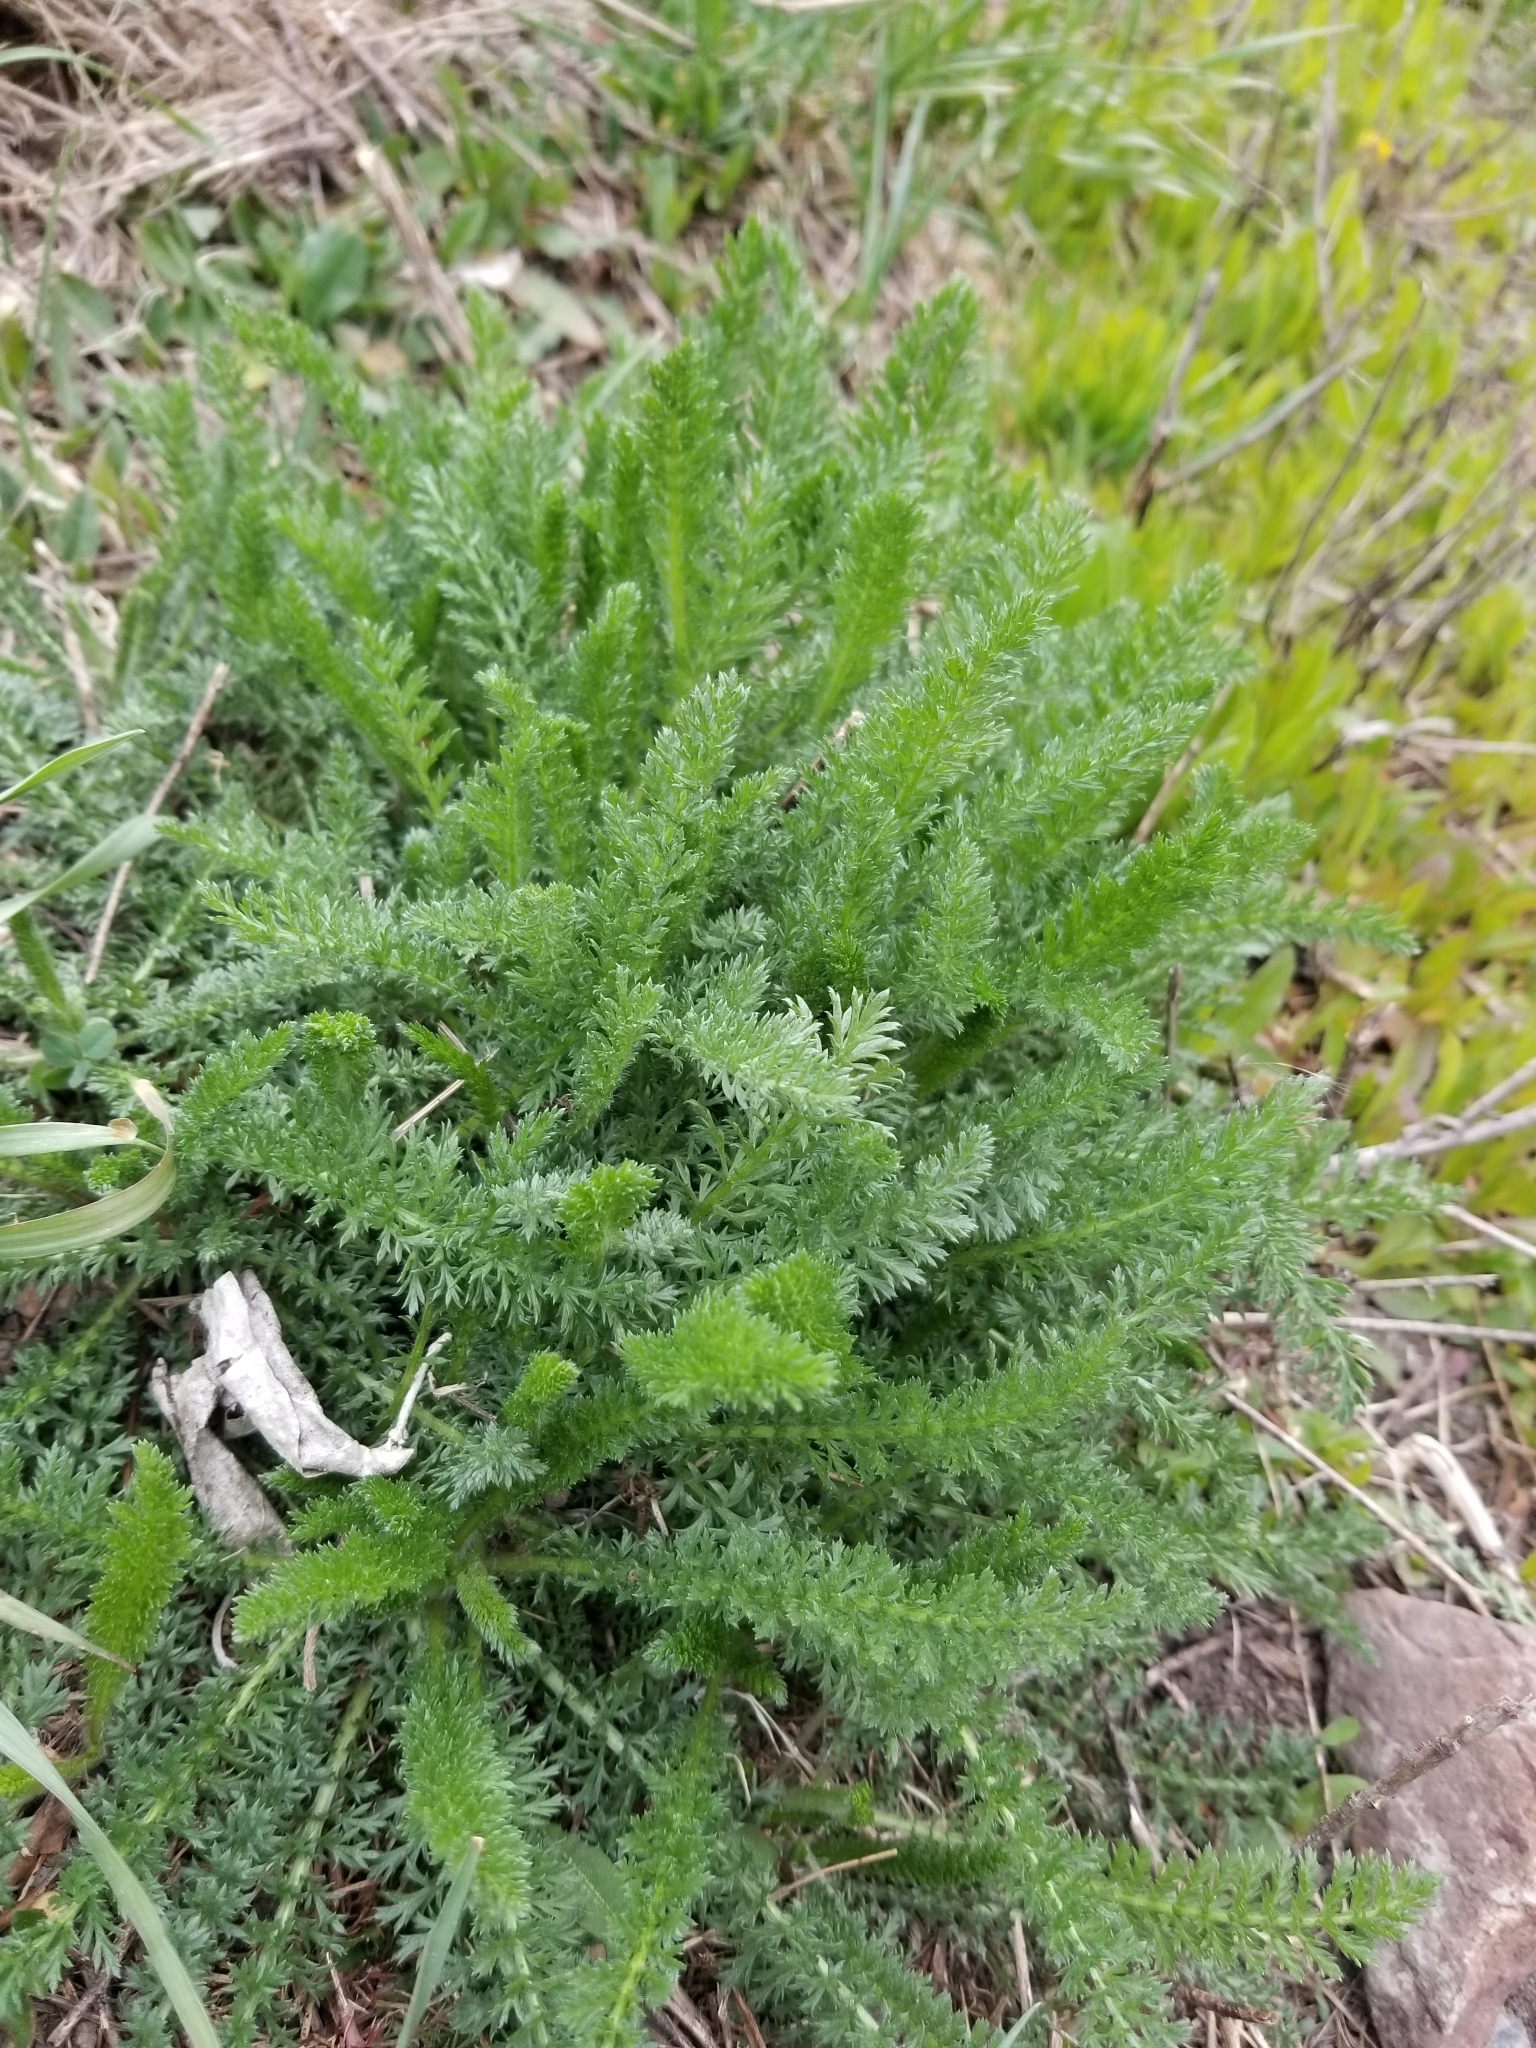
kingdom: Plantae
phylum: Tracheophyta
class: Magnoliopsida
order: Asterales
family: Asteraceae
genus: Achillea
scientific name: Achillea millefolium
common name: Yarrow
